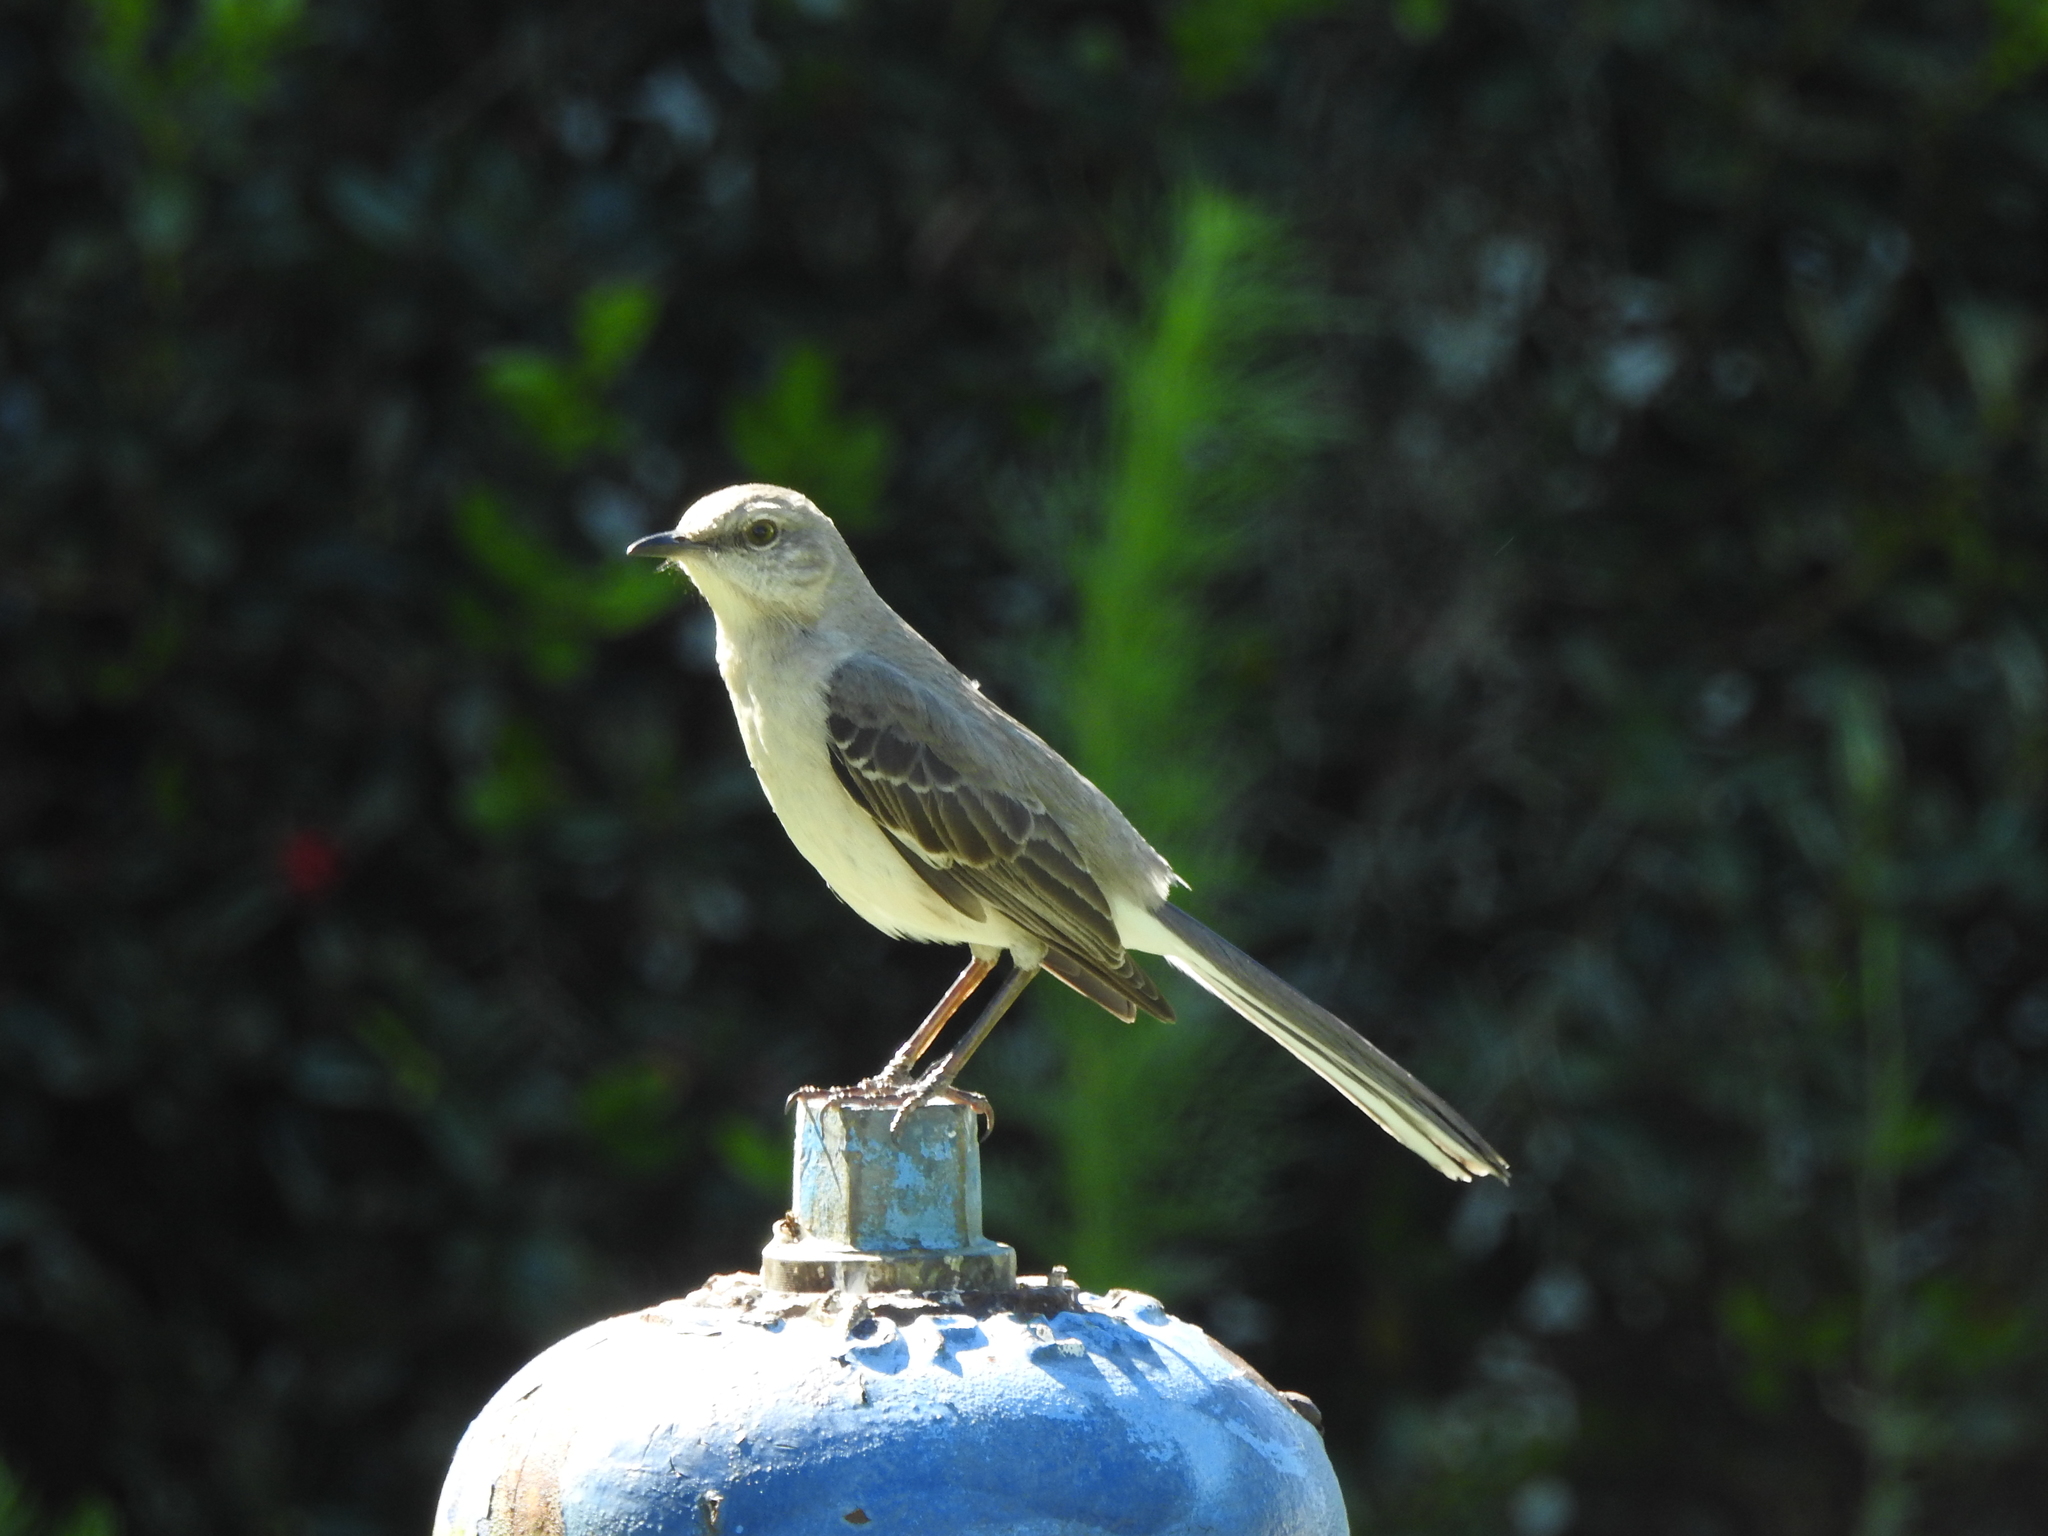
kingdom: Animalia
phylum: Chordata
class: Aves
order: Passeriformes
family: Mimidae
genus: Mimus
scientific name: Mimus polyglottos
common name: Northern mockingbird
